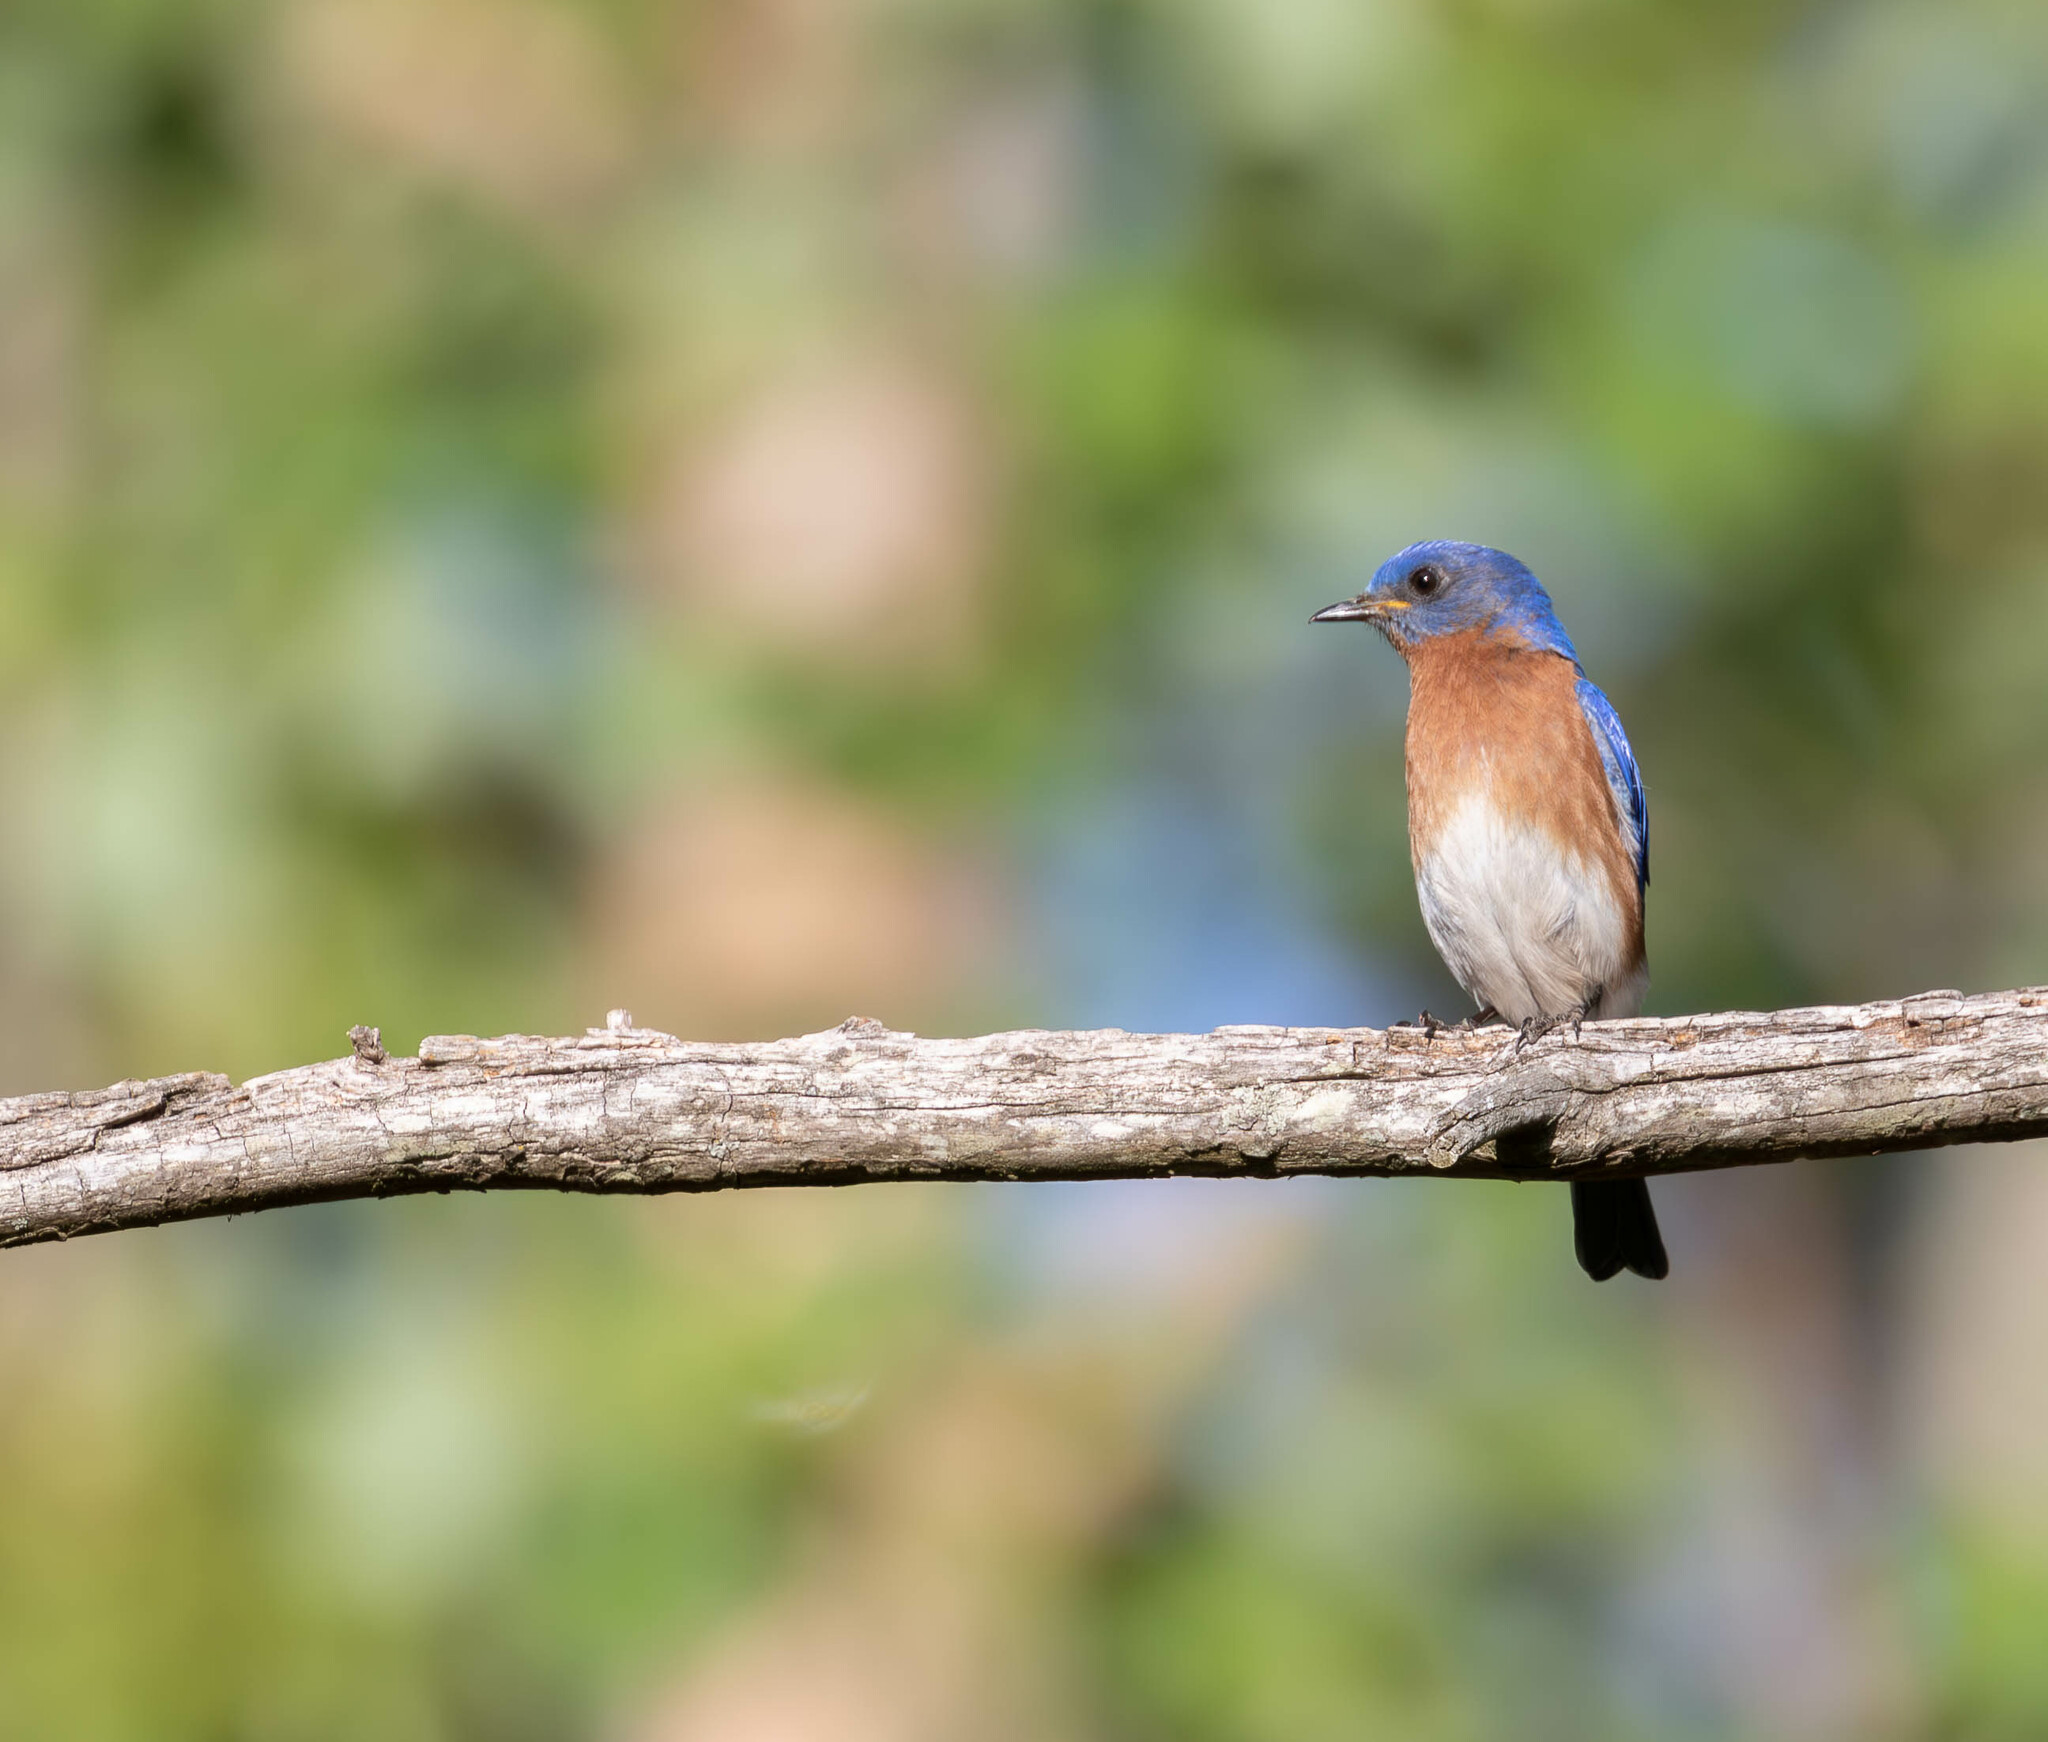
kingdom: Animalia
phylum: Chordata
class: Aves
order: Passeriformes
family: Turdidae
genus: Sialia
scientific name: Sialia sialis
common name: Eastern bluebird
